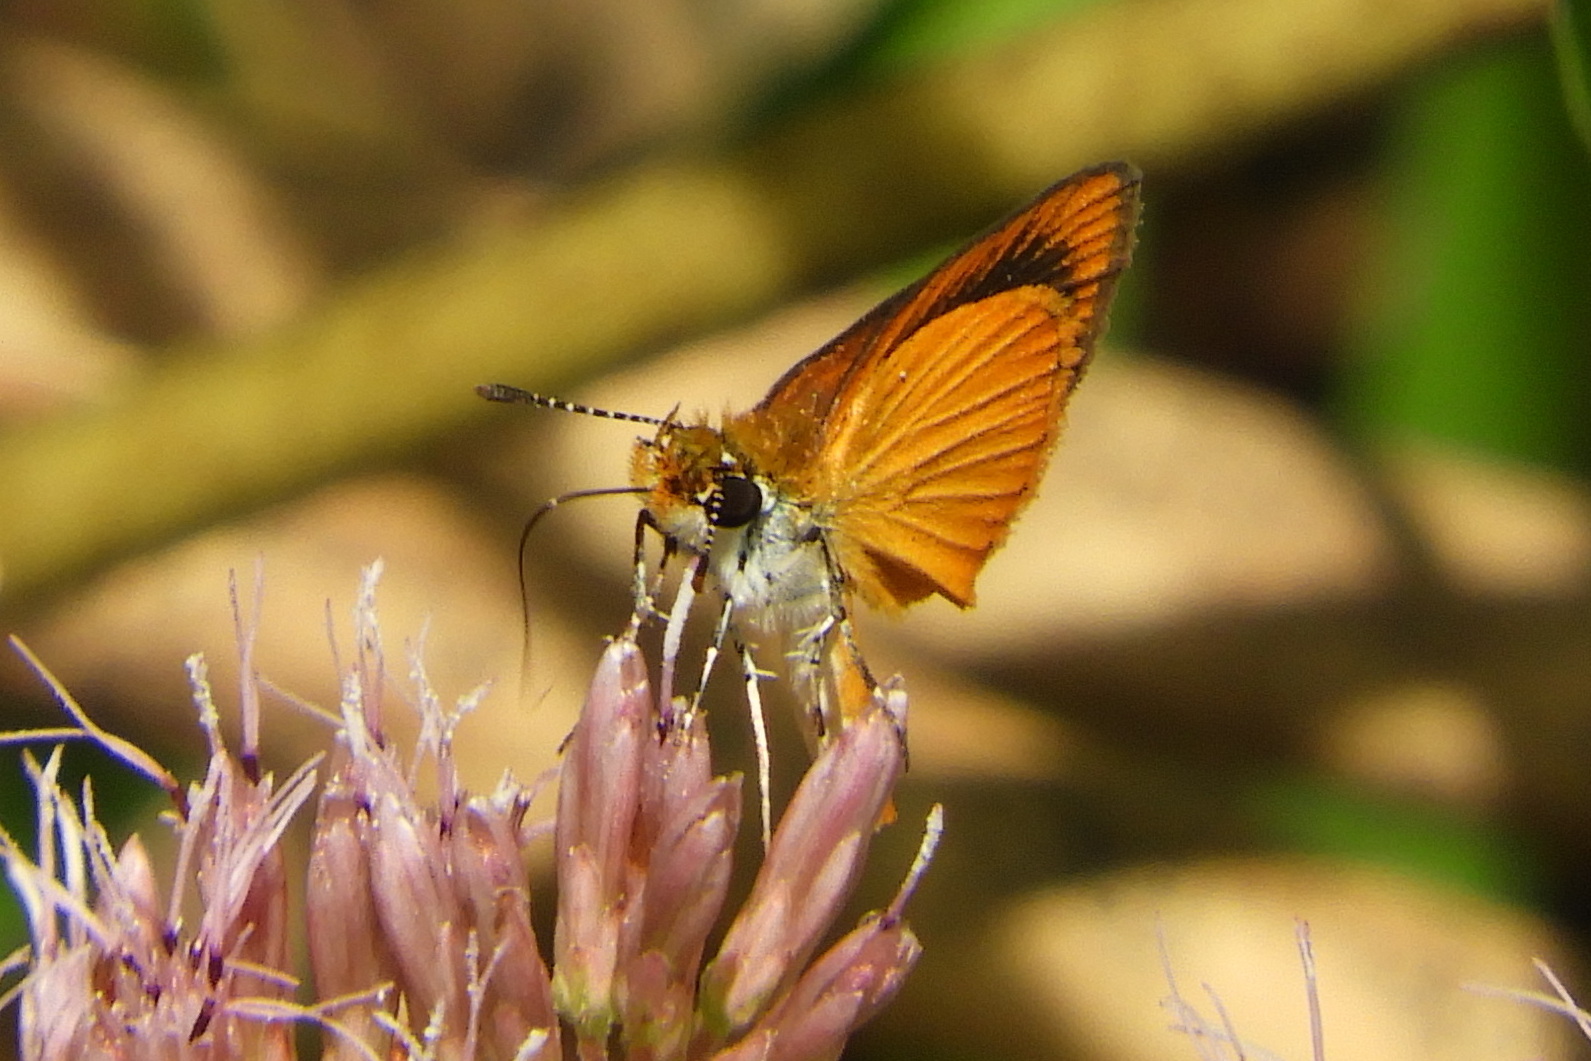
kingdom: Animalia
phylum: Arthropoda
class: Insecta
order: Lepidoptera
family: Hesperiidae
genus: Ancyloxypha
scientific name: Ancyloxypha numitor
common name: Least skipper
